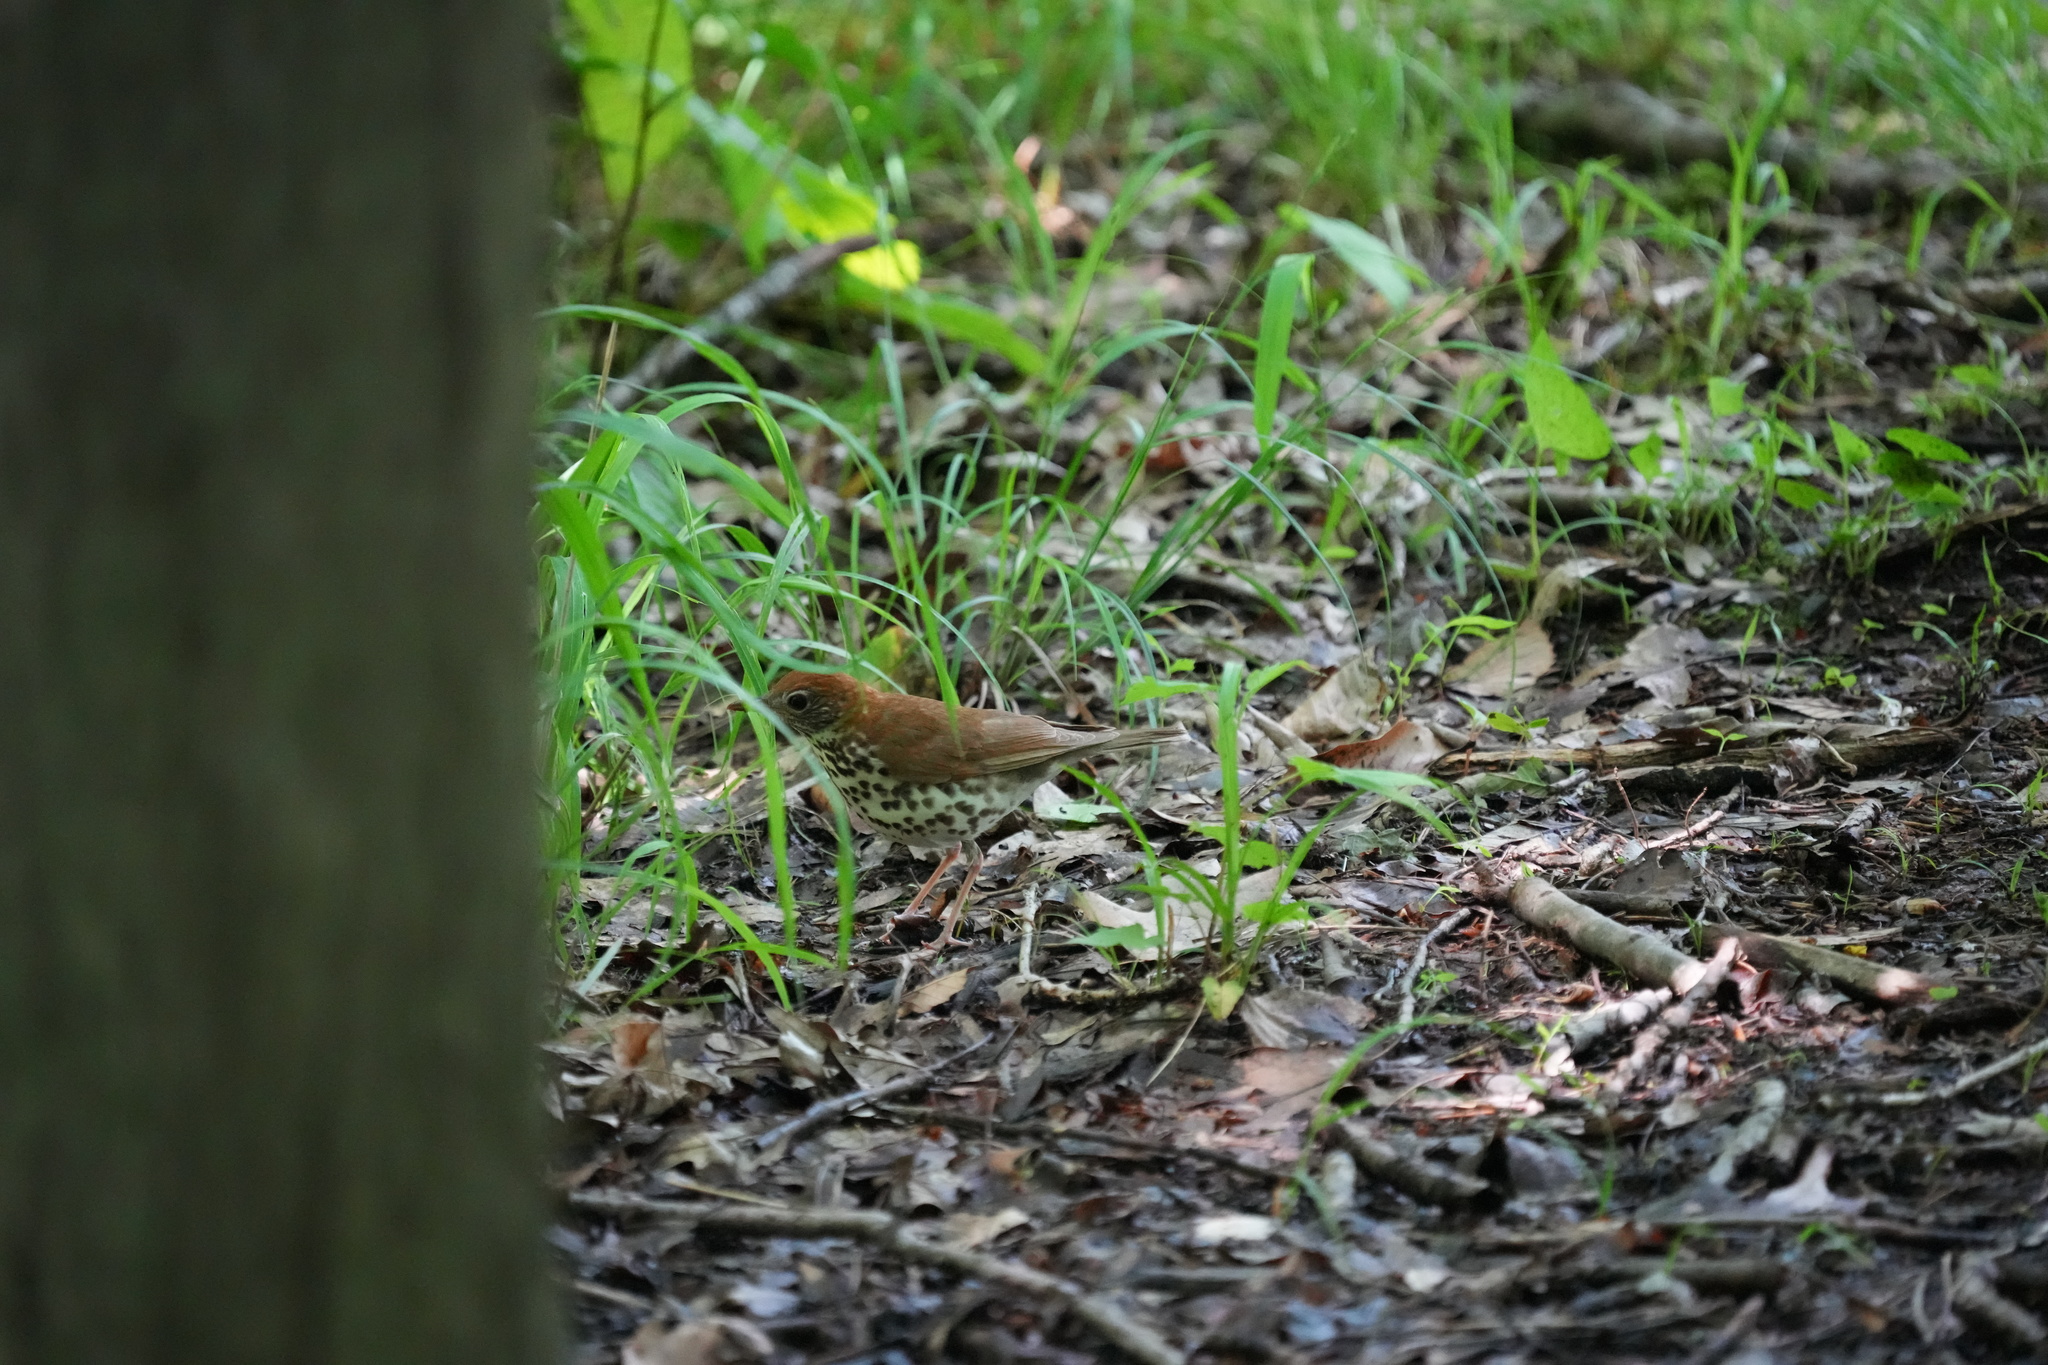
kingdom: Animalia
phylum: Chordata
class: Aves
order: Passeriformes
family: Turdidae
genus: Hylocichla
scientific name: Hylocichla mustelina
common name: Wood thrush
